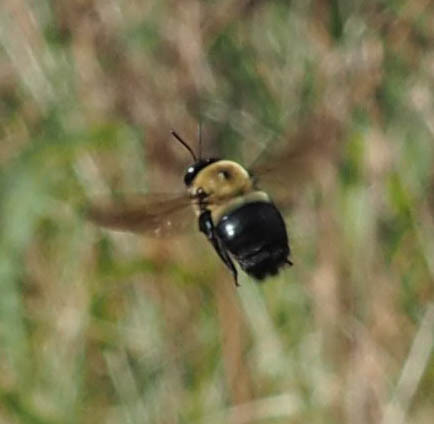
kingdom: Animalia
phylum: Arthropoda
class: Insecta
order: Hymenoptera
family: Apidae
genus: Xylocopa
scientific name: Xylocopa virginica
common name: Carpenter bee
